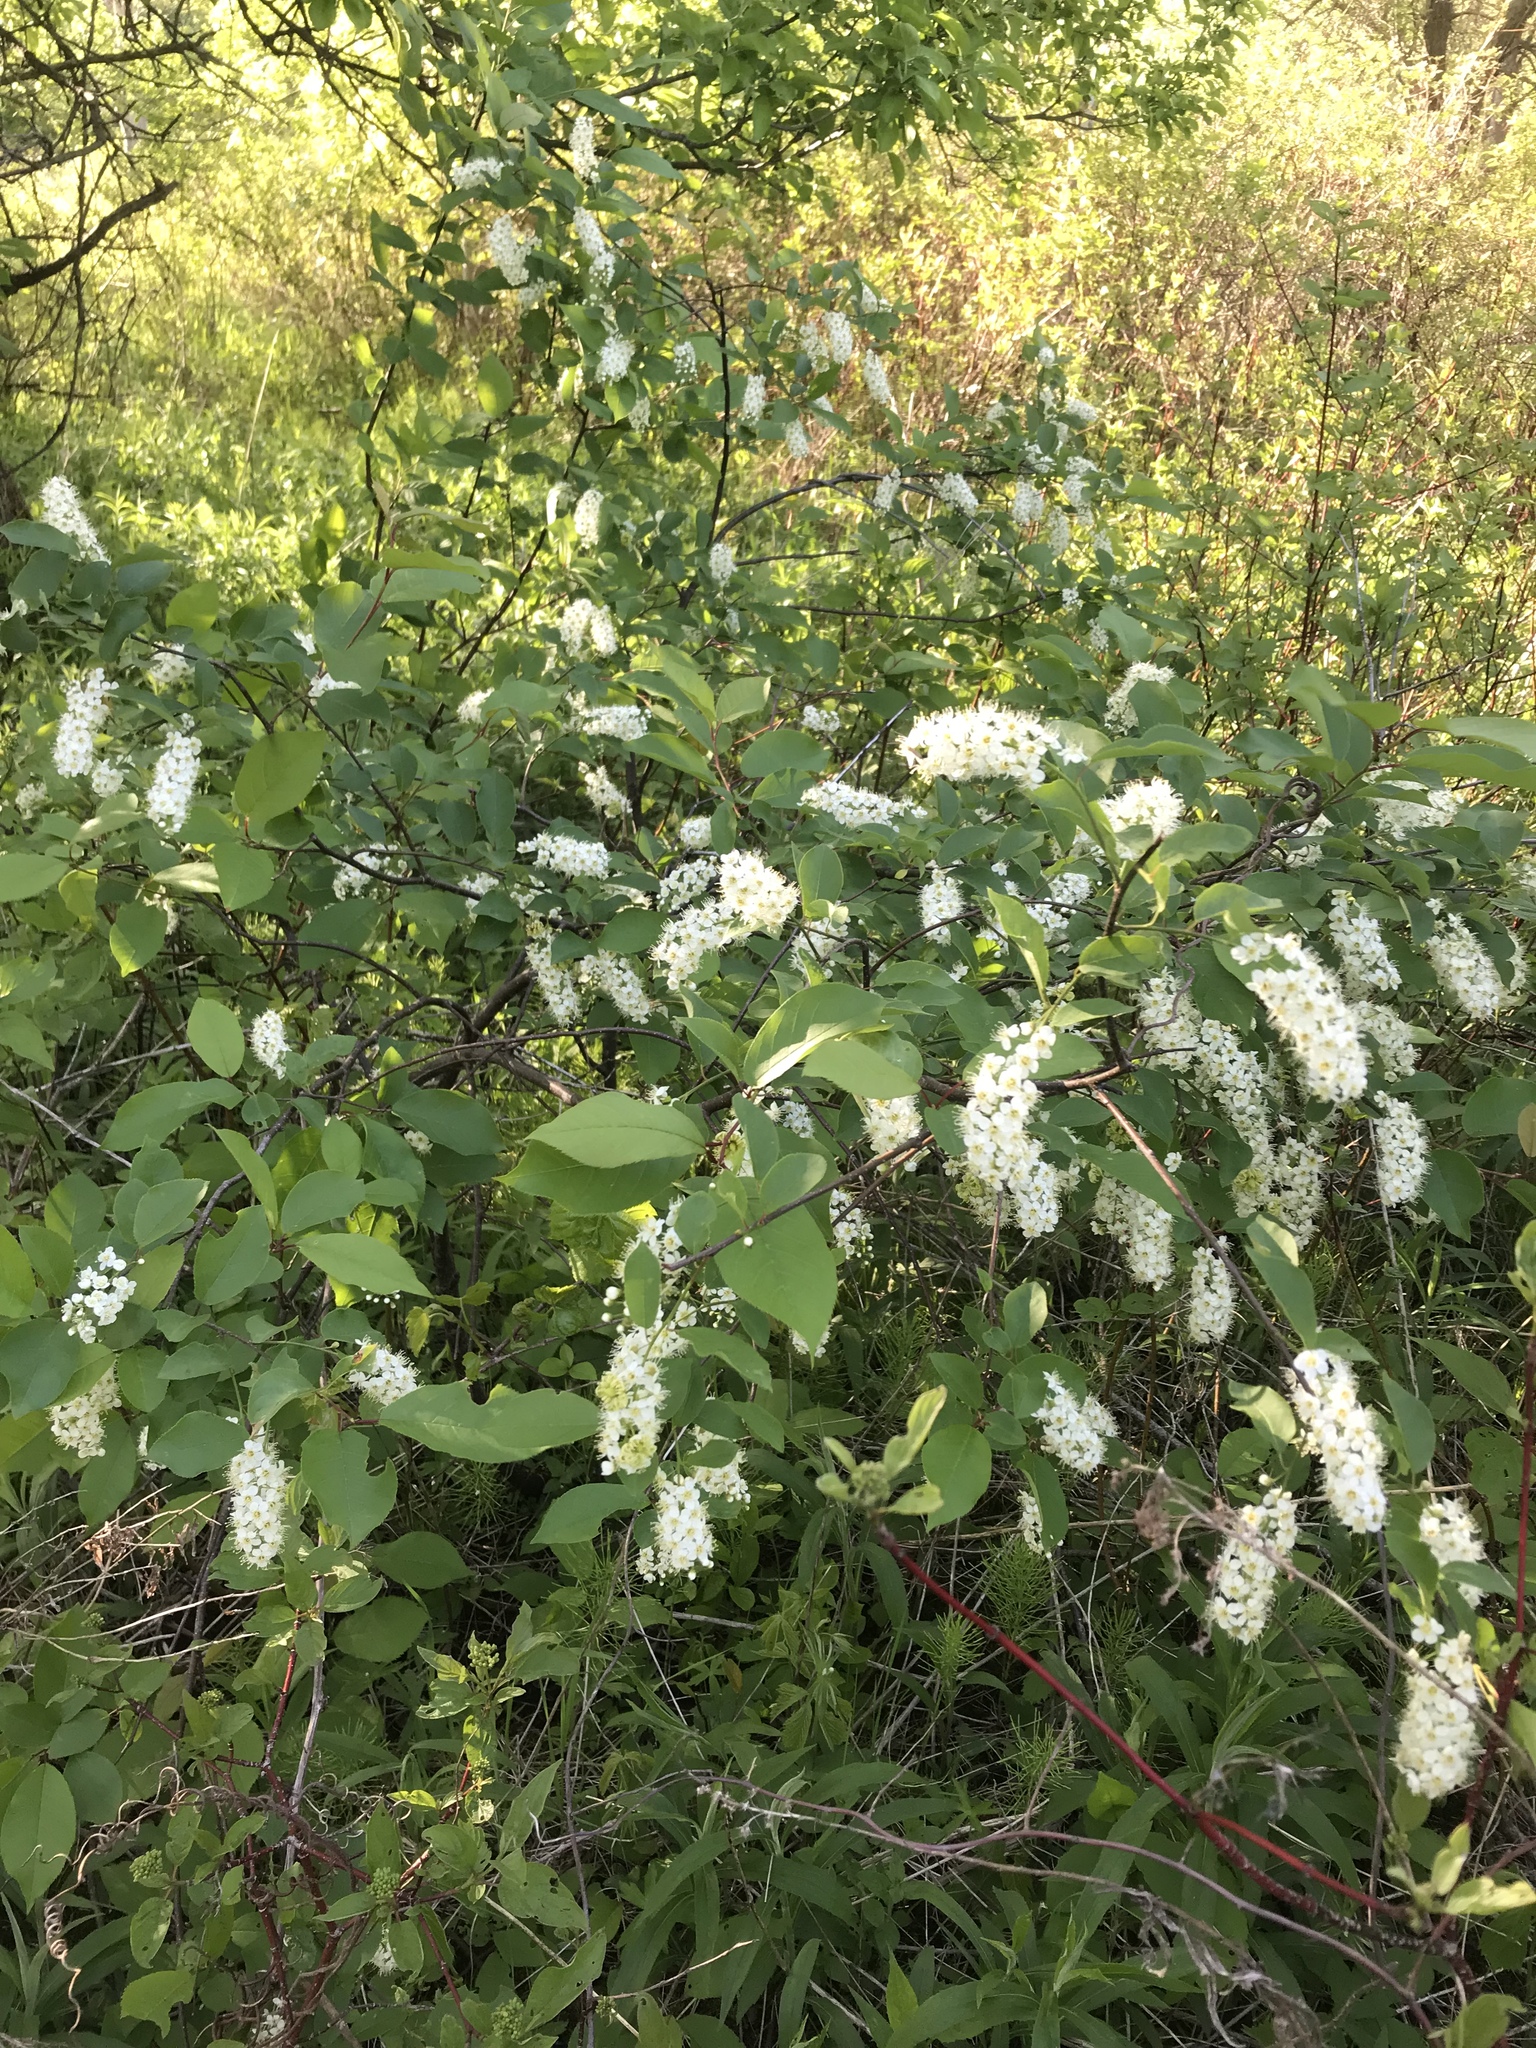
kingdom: Plantae
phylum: Tracheophyta
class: Magnoliopsida
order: Rosales
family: Rosaceae
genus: Prunus
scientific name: Prunus virginiana
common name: Chokecherry
